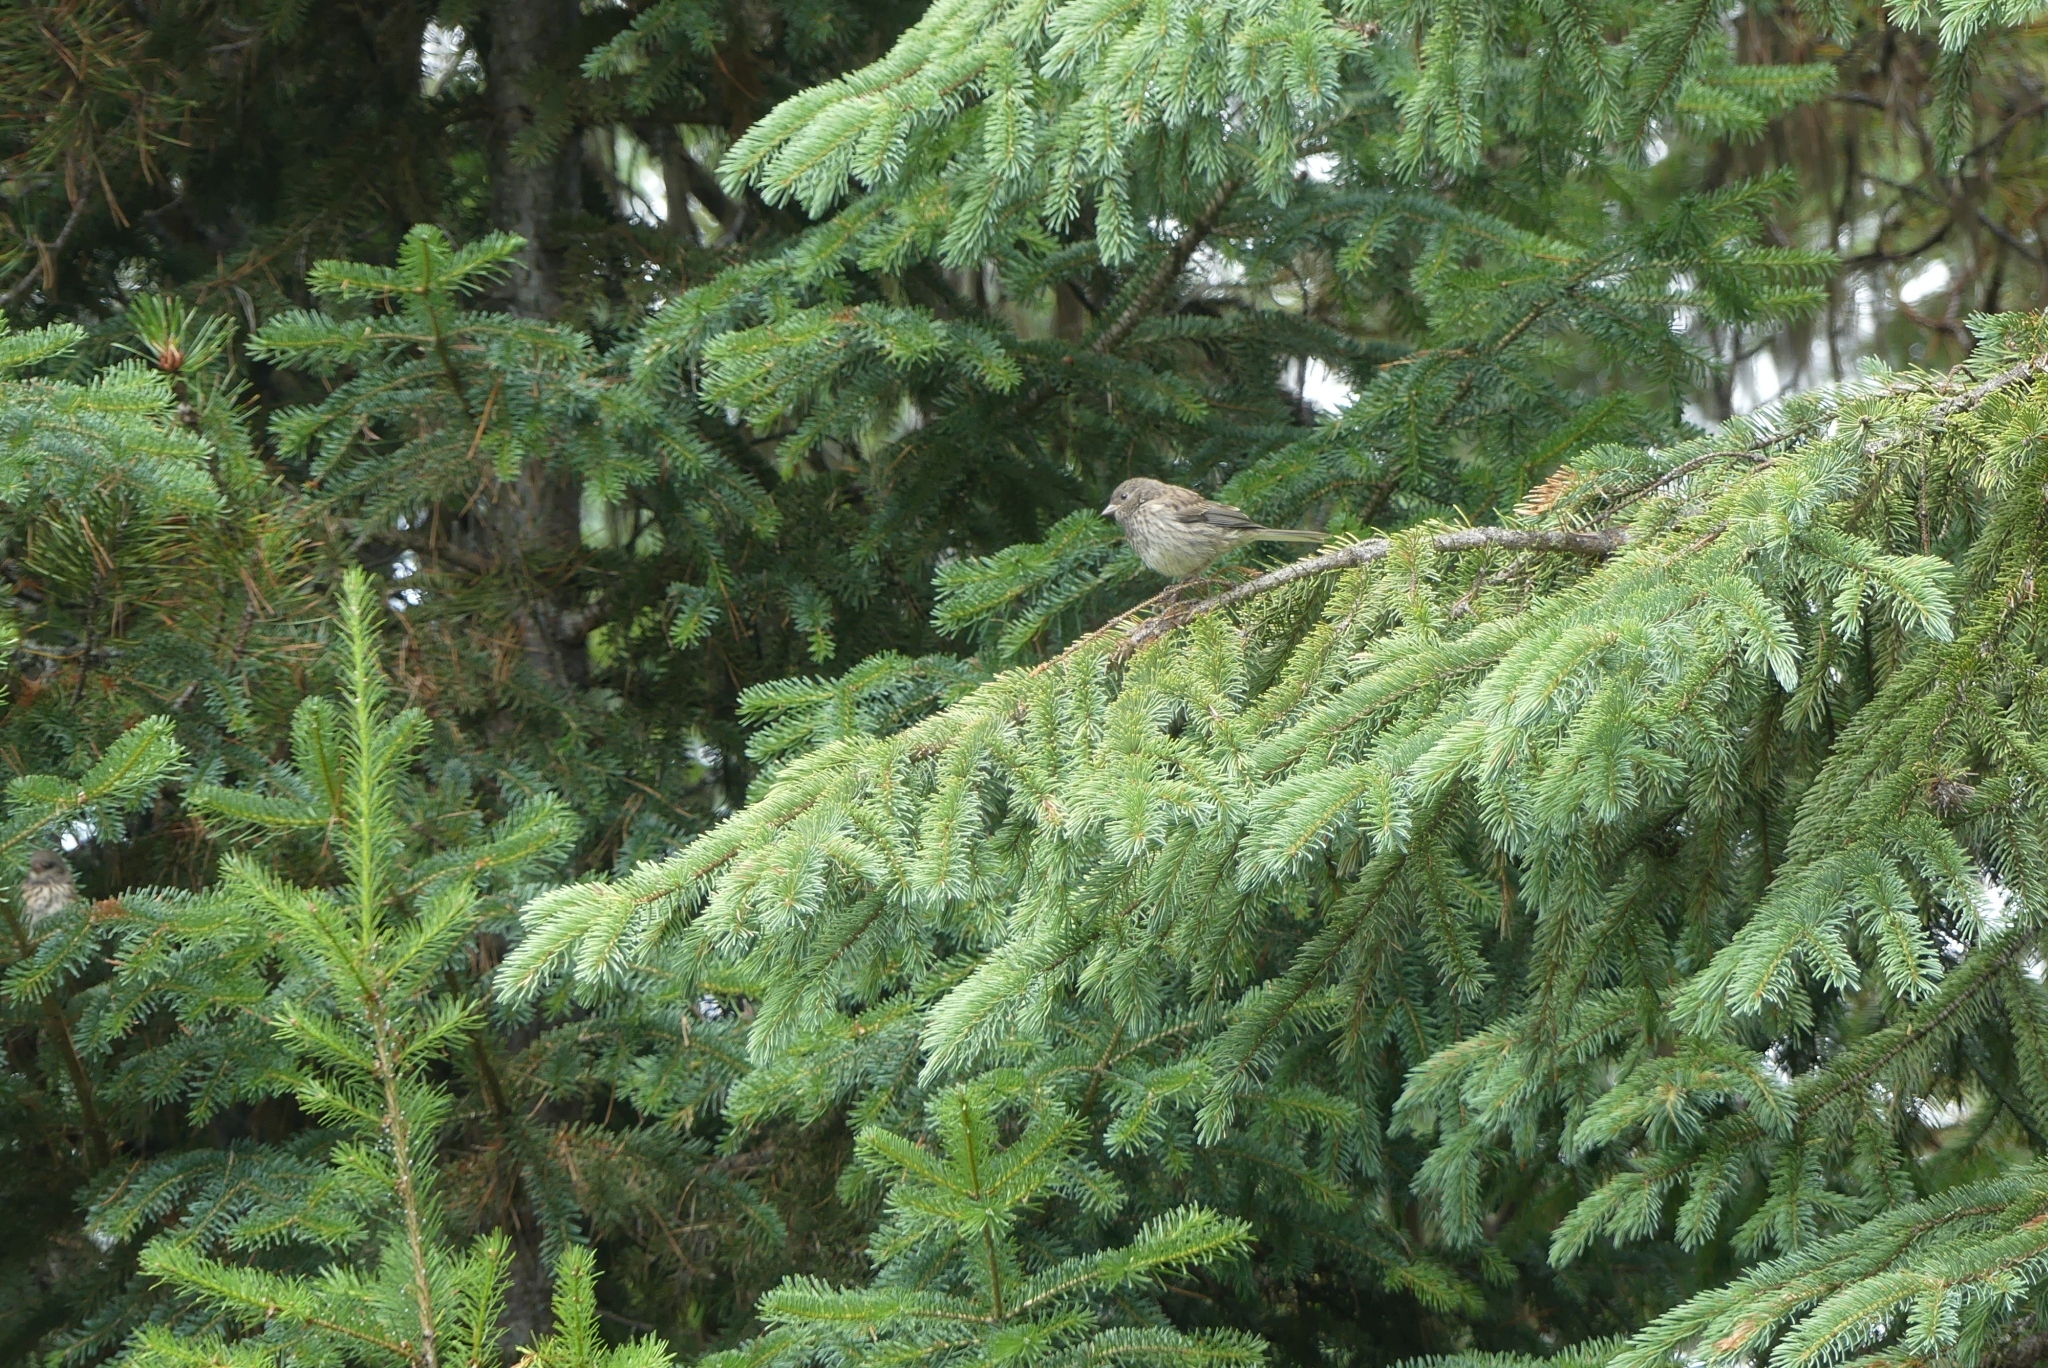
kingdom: Animalia
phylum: Chordata
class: Aves
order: Passeriformes
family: Passerellidae
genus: Junco
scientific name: Junco hyemalis
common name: Dark-eyed junco
